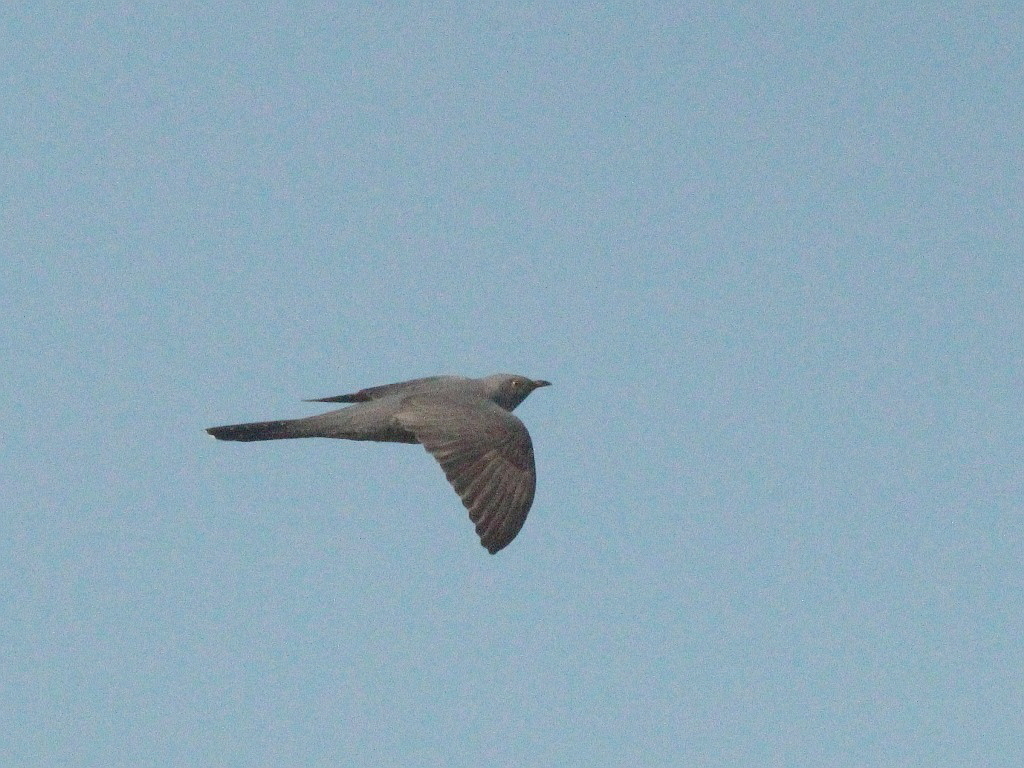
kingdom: Animalia
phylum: Chordata
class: Aves
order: Cuculiformes
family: Cuculidae
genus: Cuculus
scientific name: Cuculus canorus
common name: Common cuckoo
